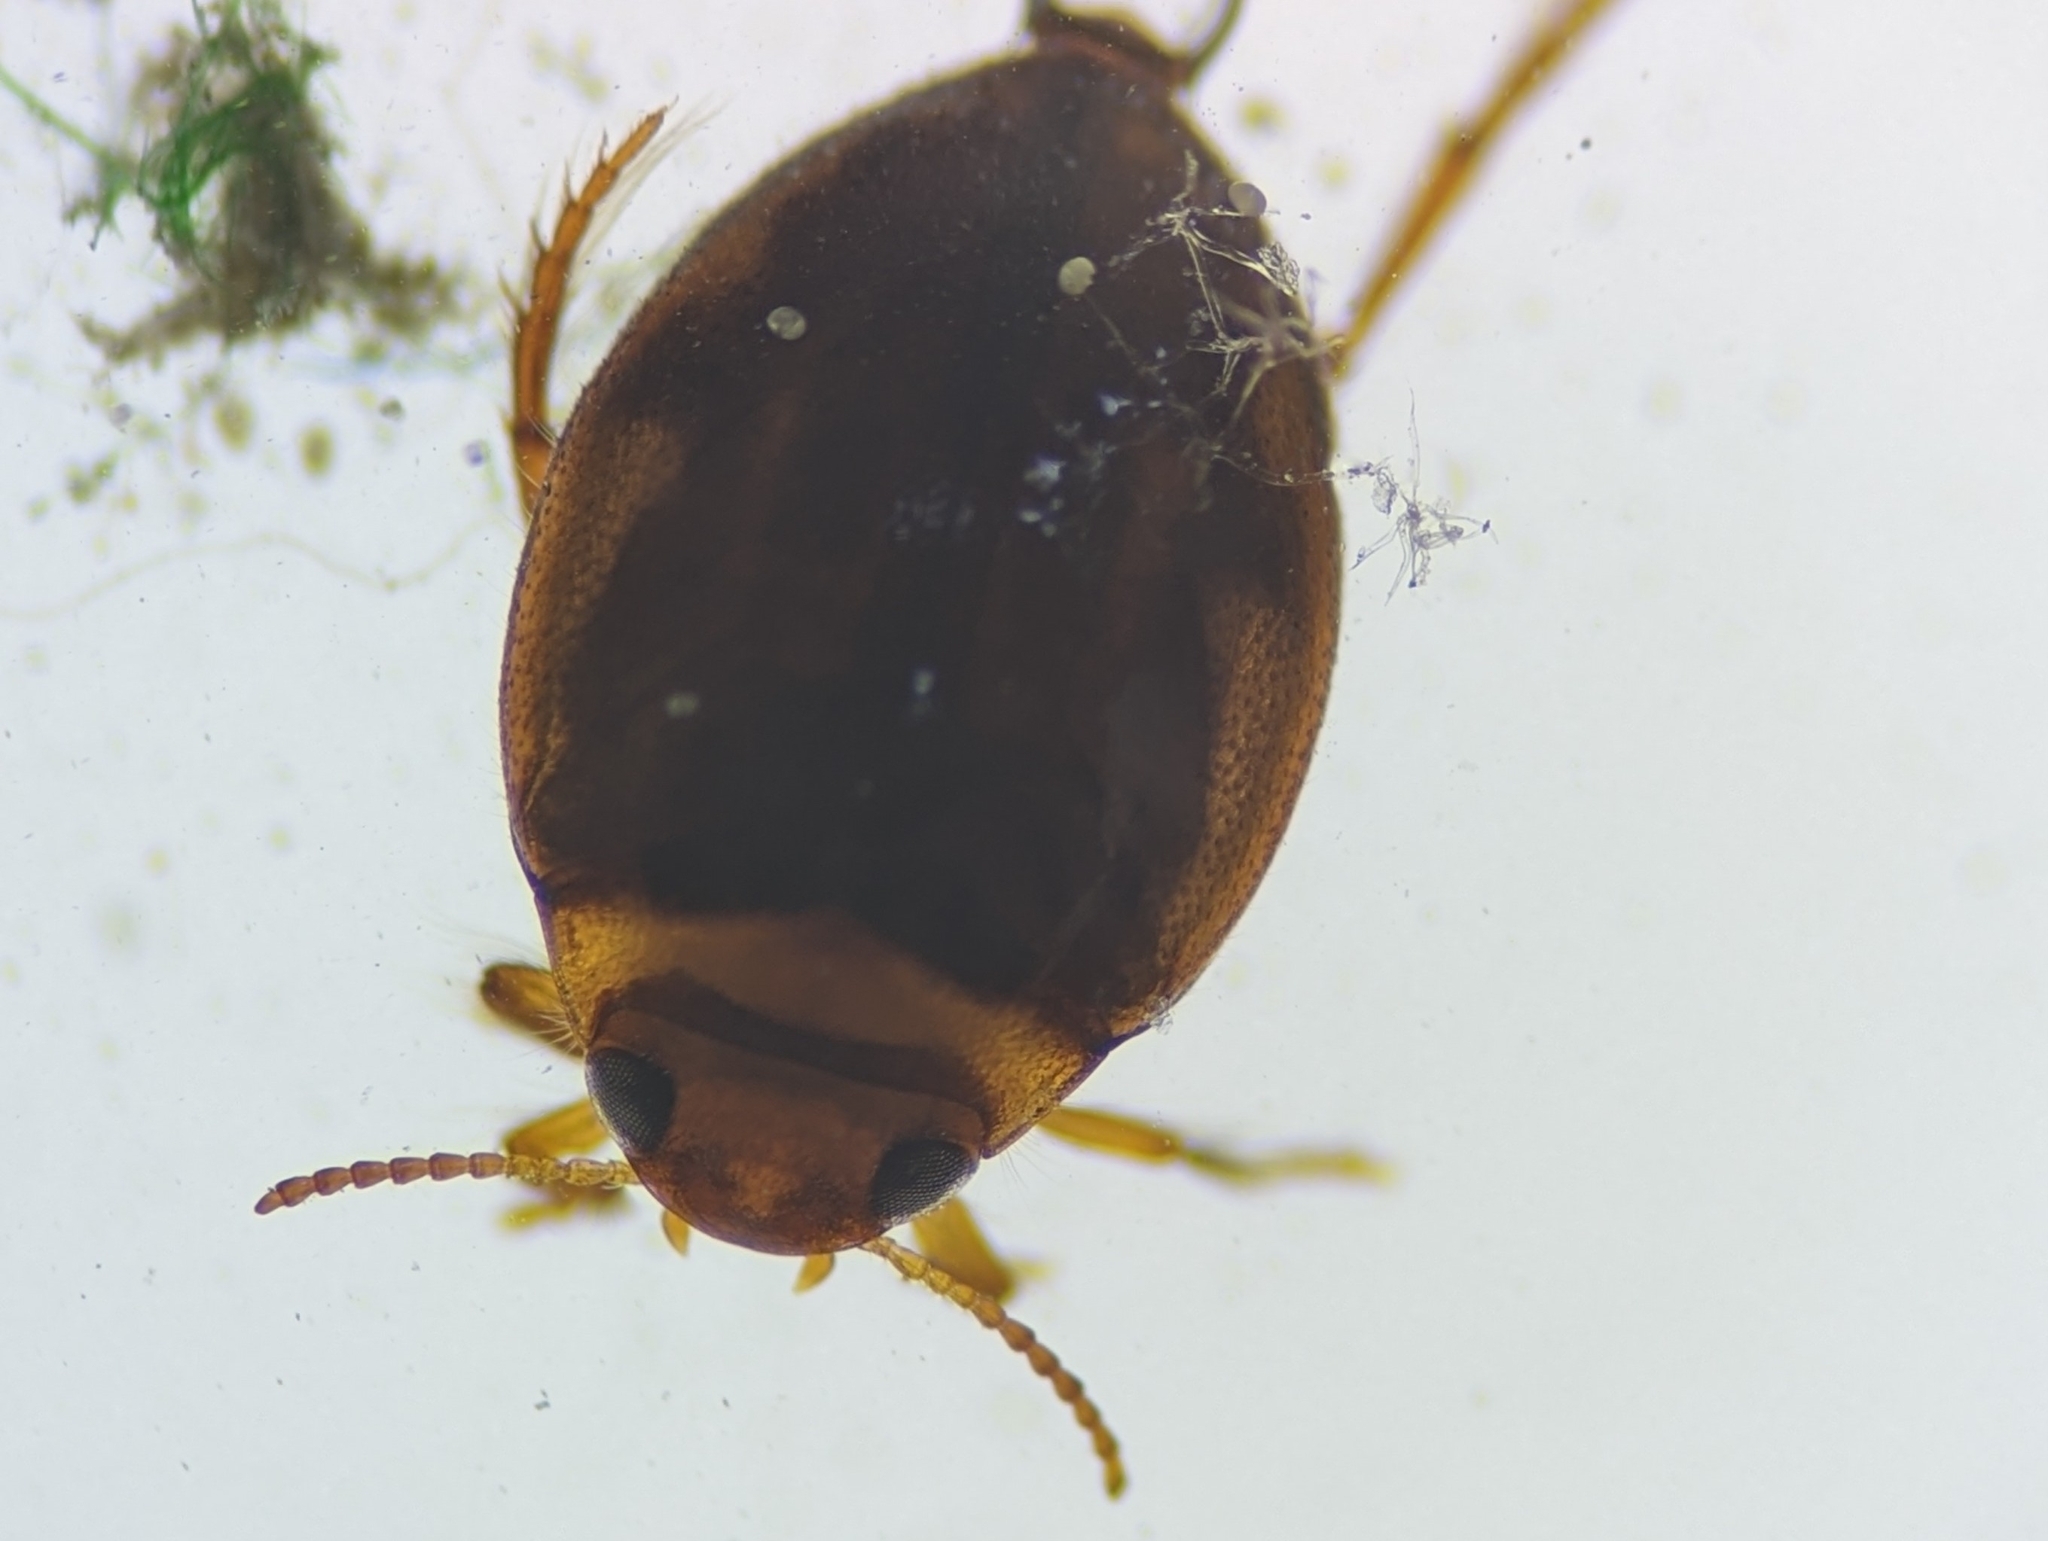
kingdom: Animalia
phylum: Arthropoda
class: Insecta
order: Coleoptera
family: Dytiscidae
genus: Hygrotus
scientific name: Hygrotus sayi
